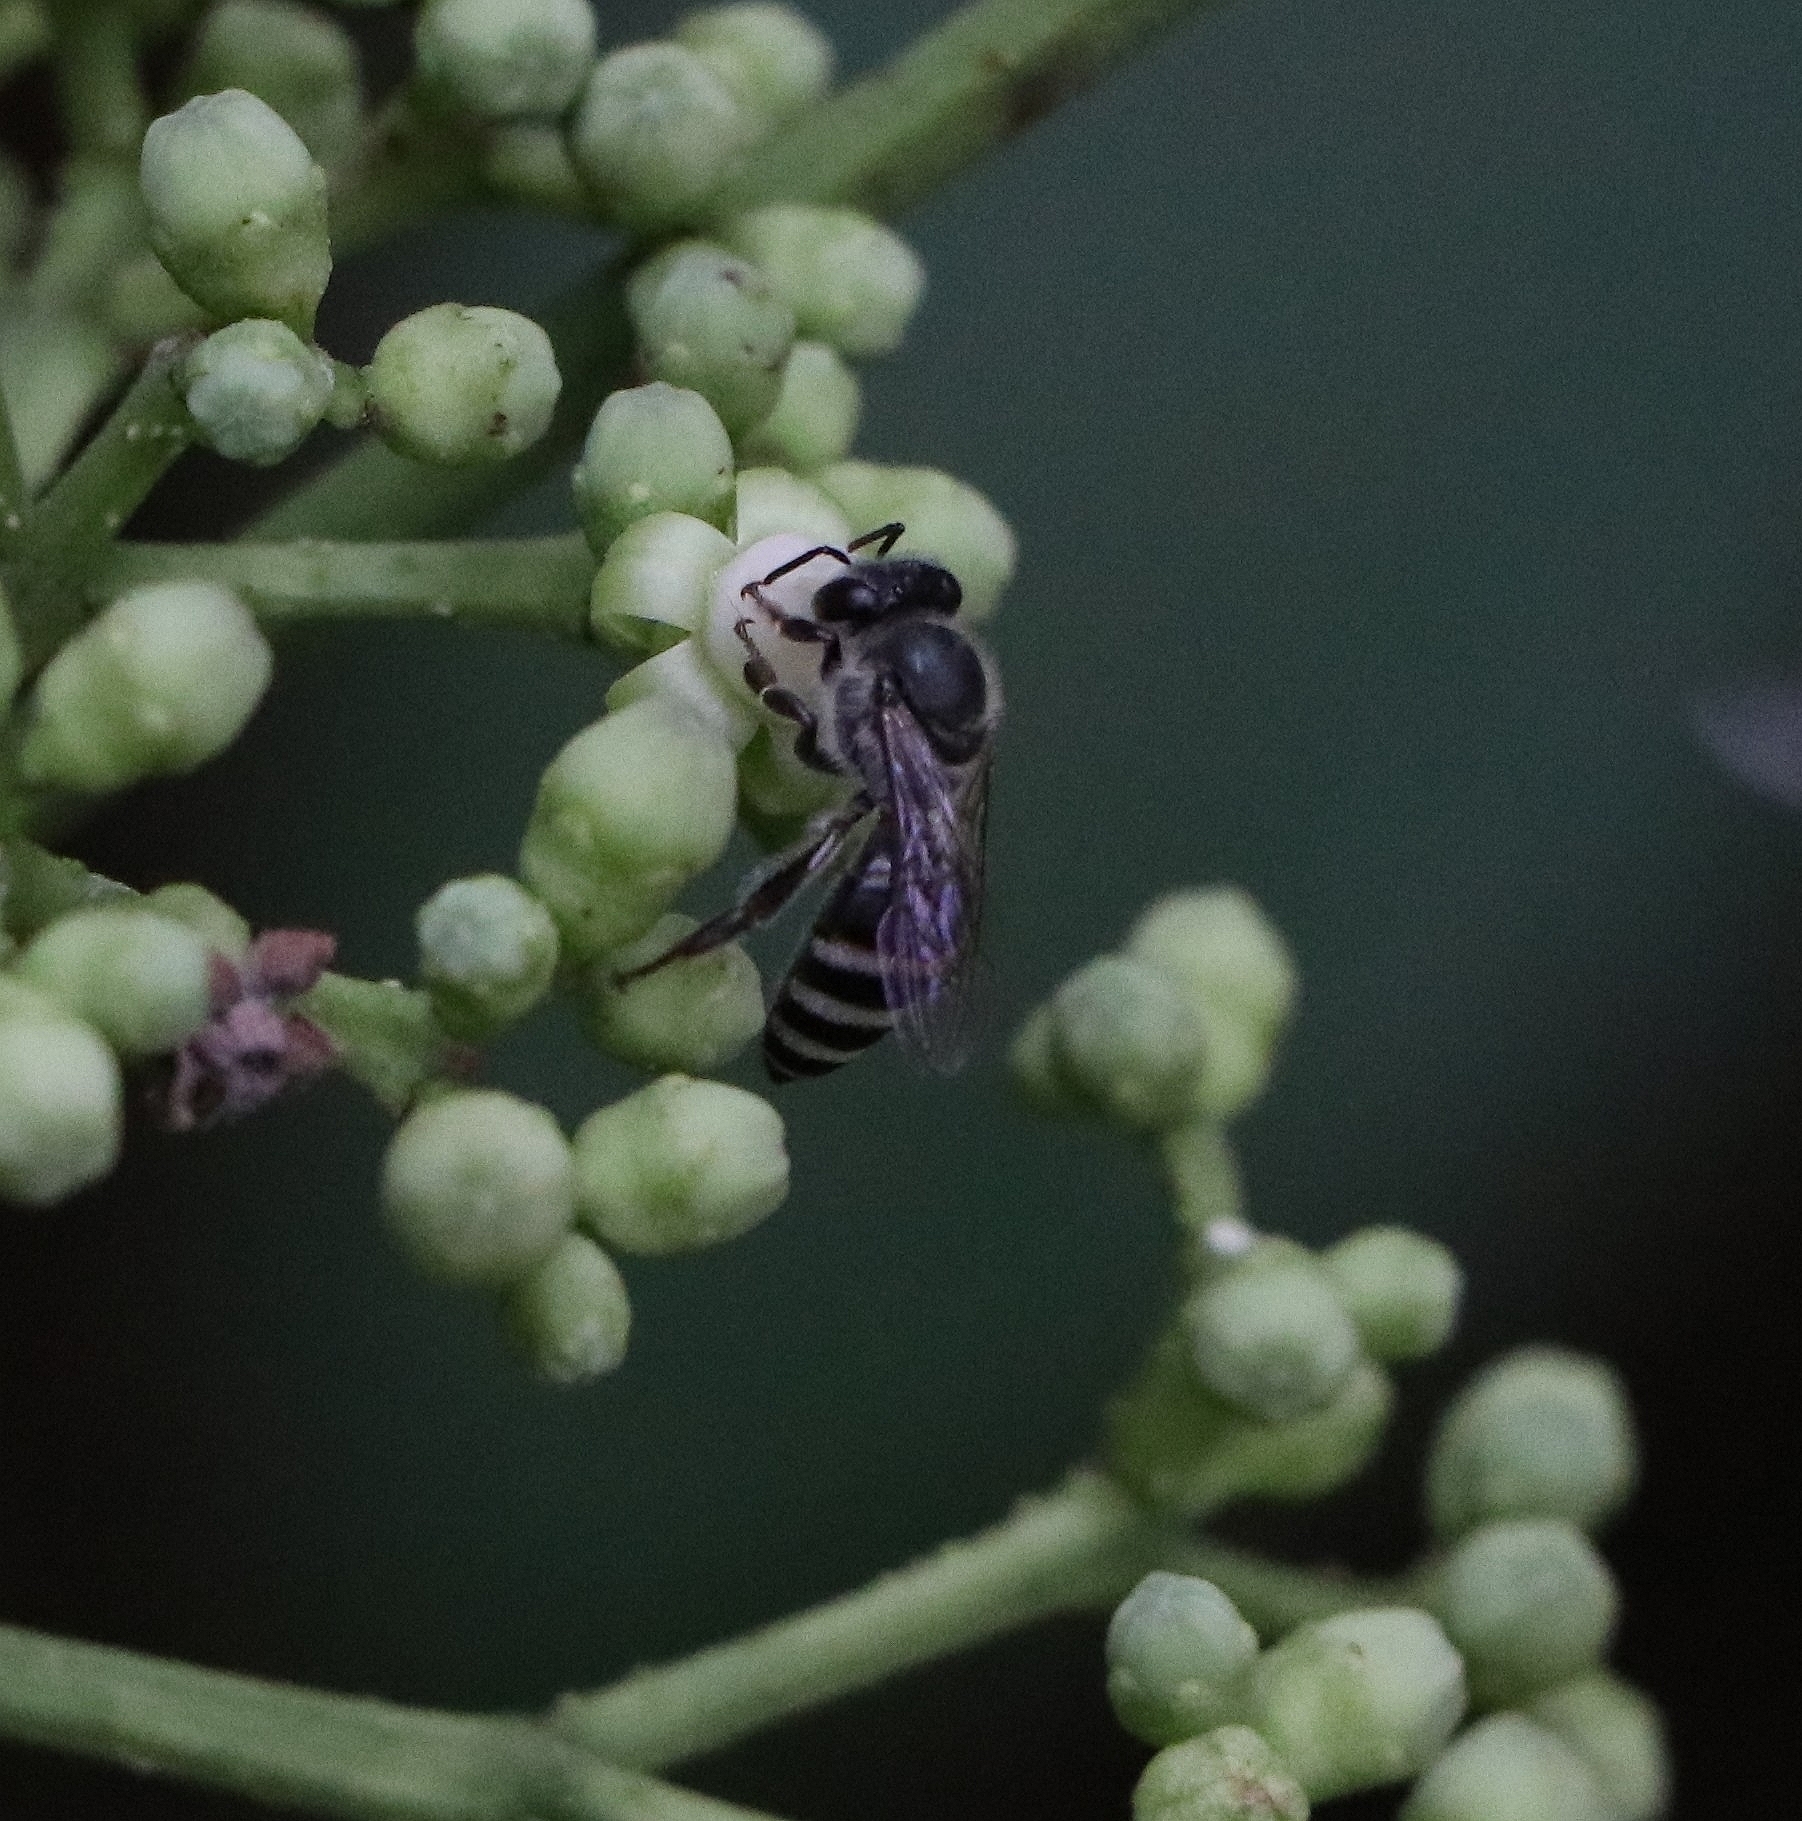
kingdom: Animalia
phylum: Arthropoda
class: Insecta
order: Hymenoptera
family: Apidae
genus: Apis
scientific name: Apis florea
